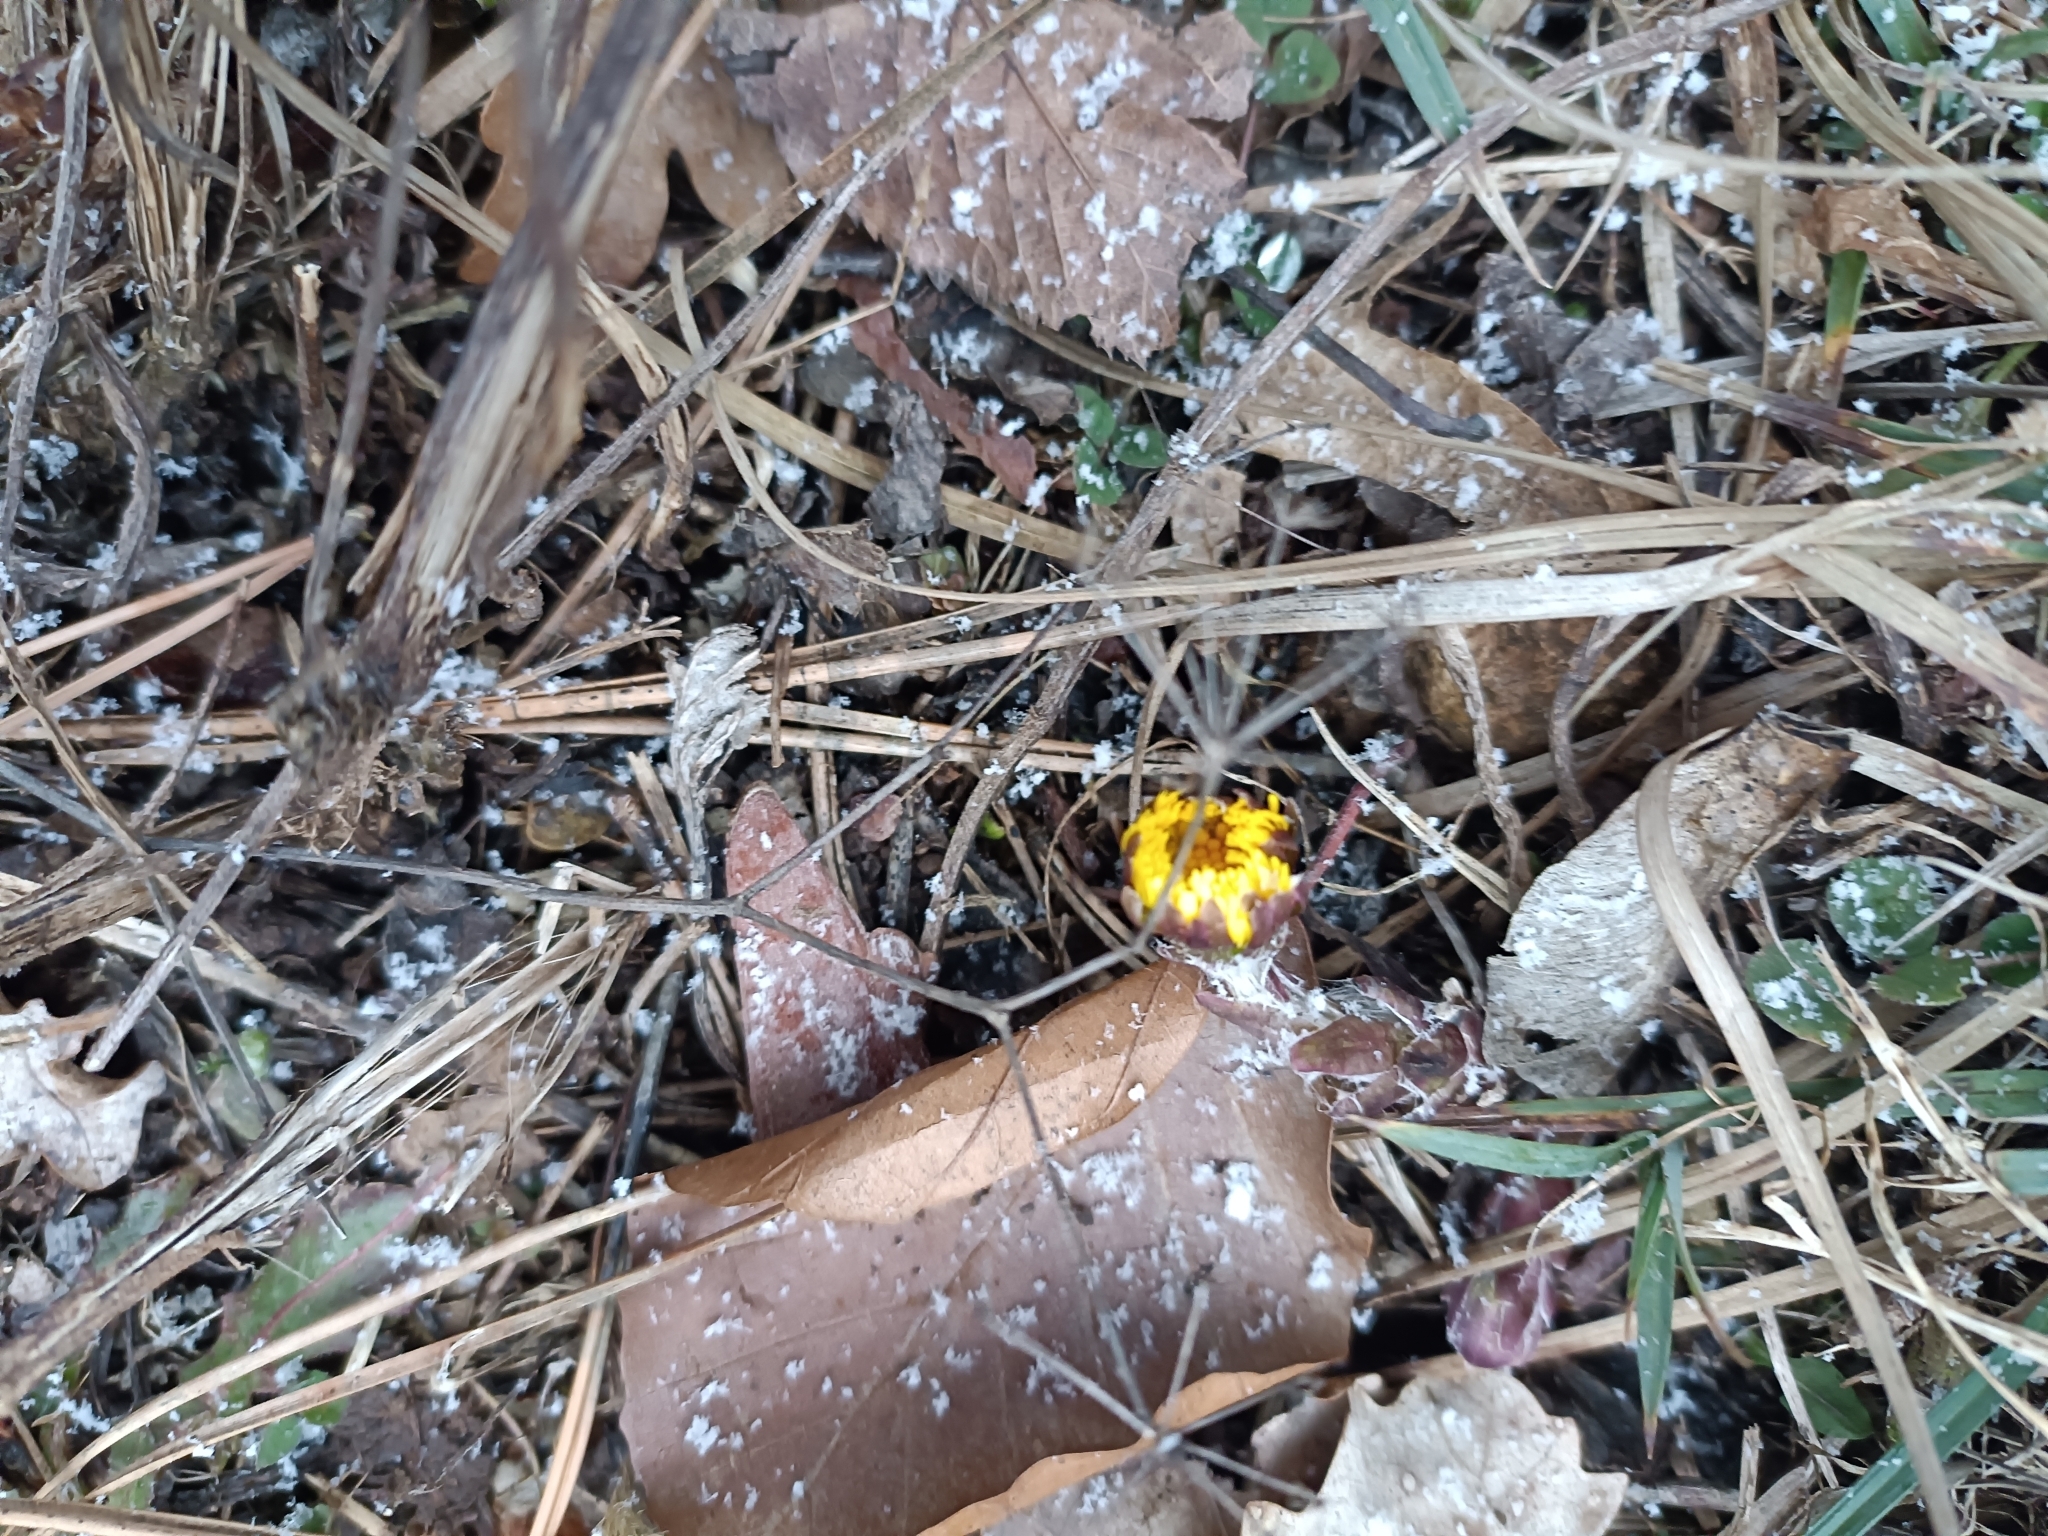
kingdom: Plantae
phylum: Tracheophyta
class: Magnoliopsida
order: Asterales
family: Asteraceae
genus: Tussilago
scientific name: Tussilago farfara
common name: Coltsfoot
